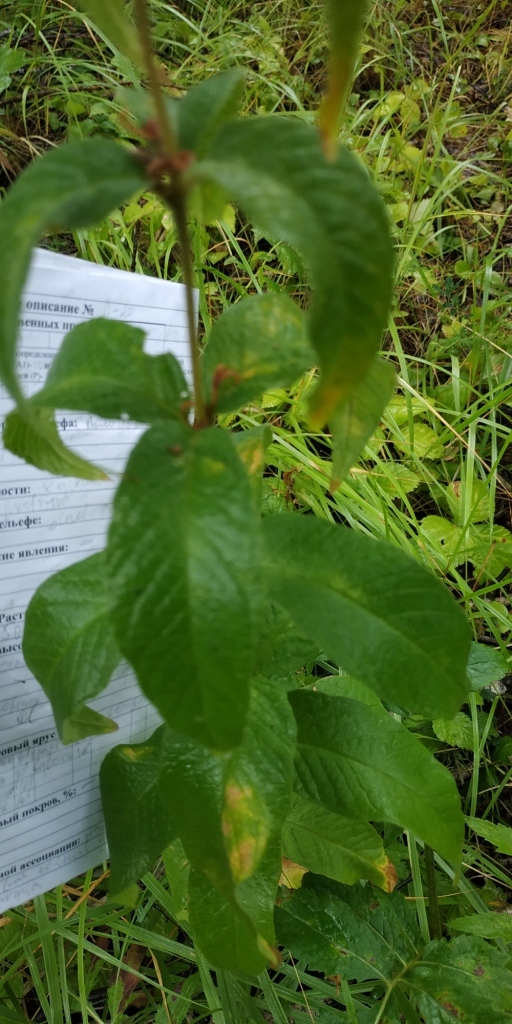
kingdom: Plantae
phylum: Tracheophyta
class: Magnoliopsida
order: Ericales
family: Primulaceae
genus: Lysimachia
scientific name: Lysimachia vulgaris
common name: Yellow loosestrife
